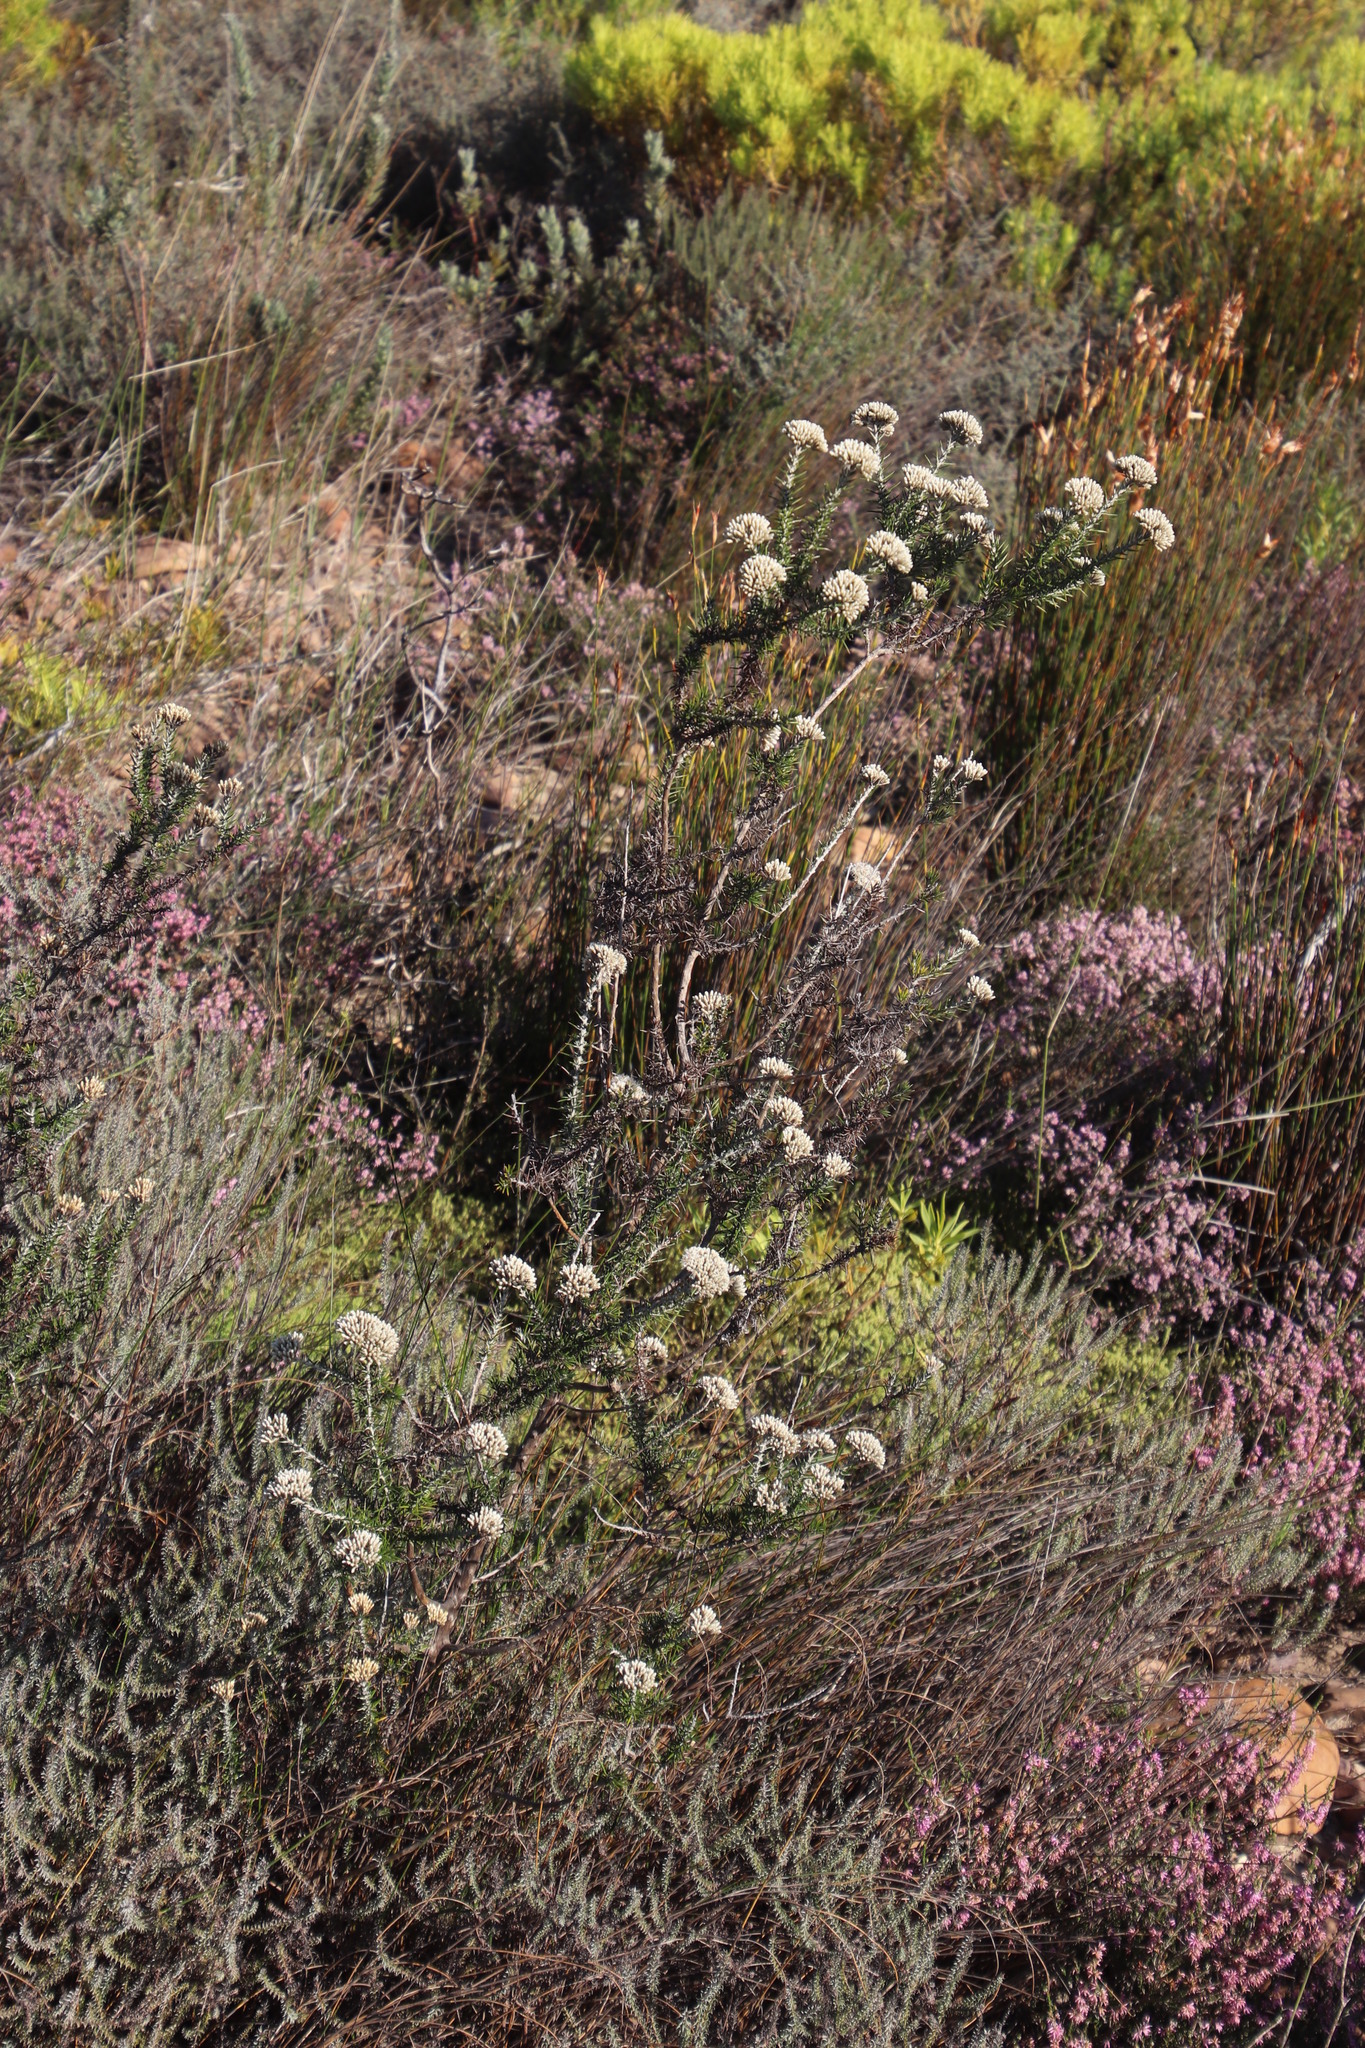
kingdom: Plantae
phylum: Tracheophyta
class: Magnoliopsida
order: Asterales
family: Asteraceae
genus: Metalasia
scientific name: Metalasia densa
